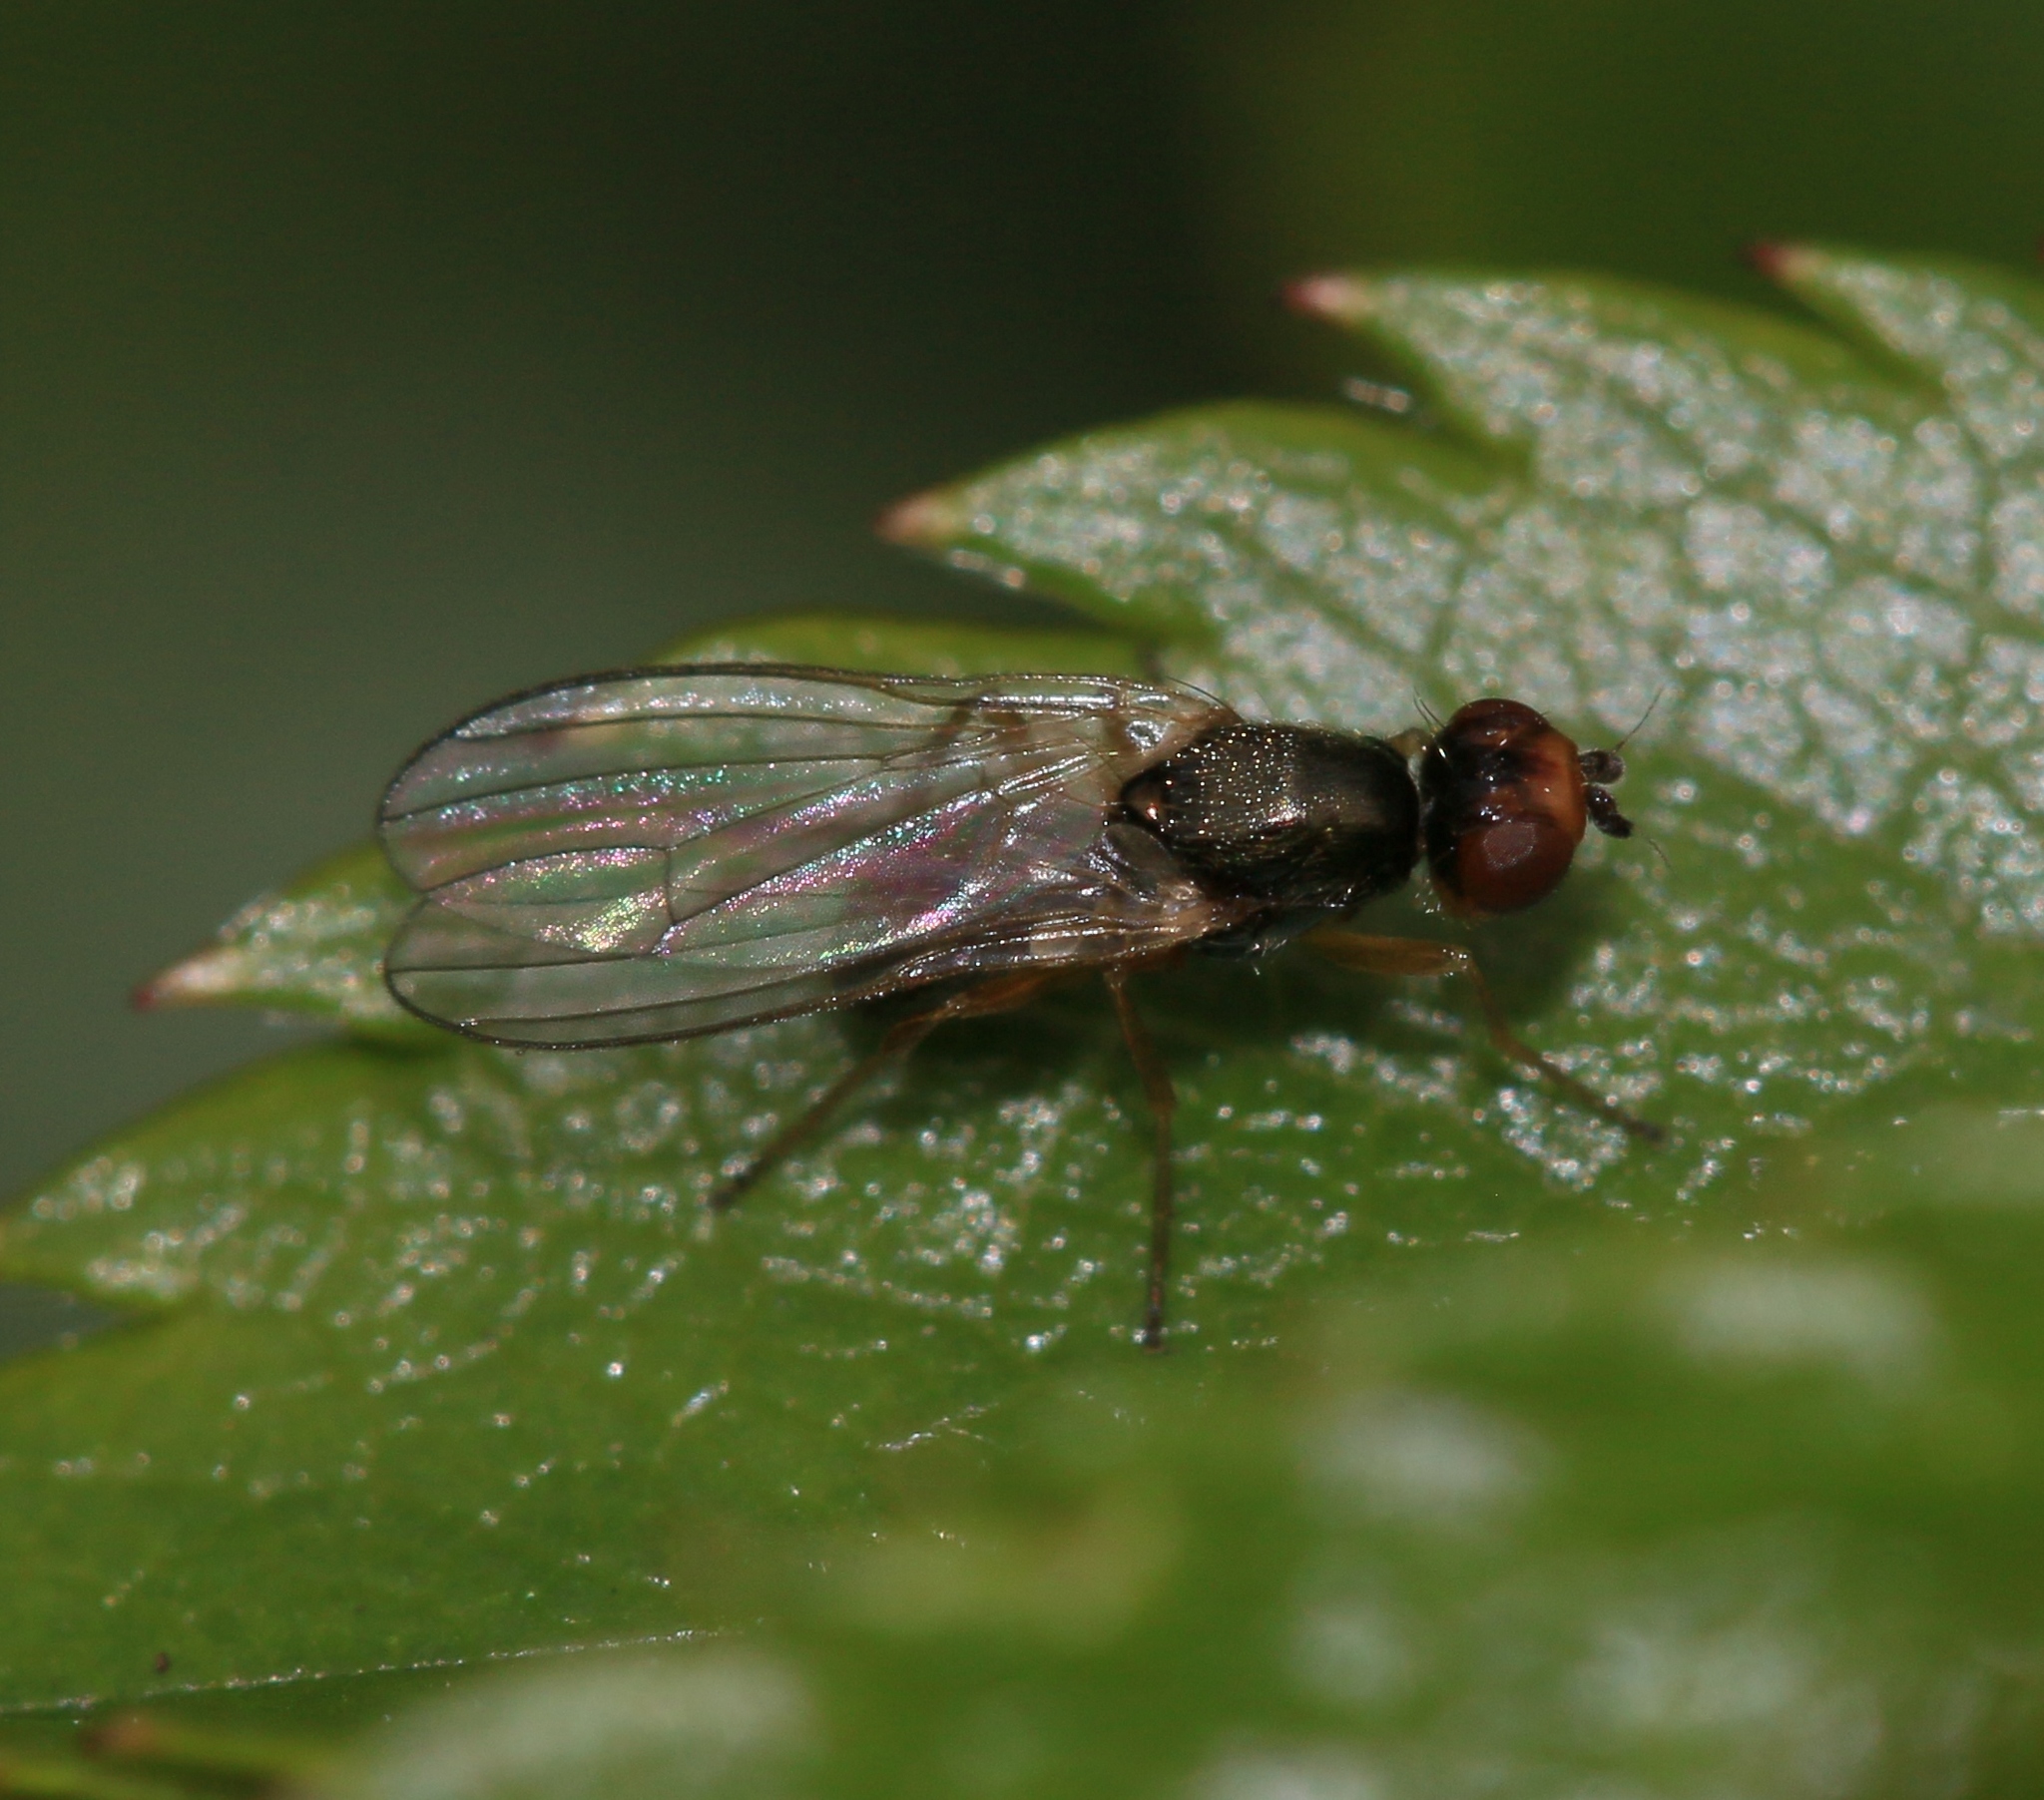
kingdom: Animalia
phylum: Arthropoda
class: Insecta
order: Diptera
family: Psilidae
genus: Chamaepsila
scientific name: Chamaepsila
